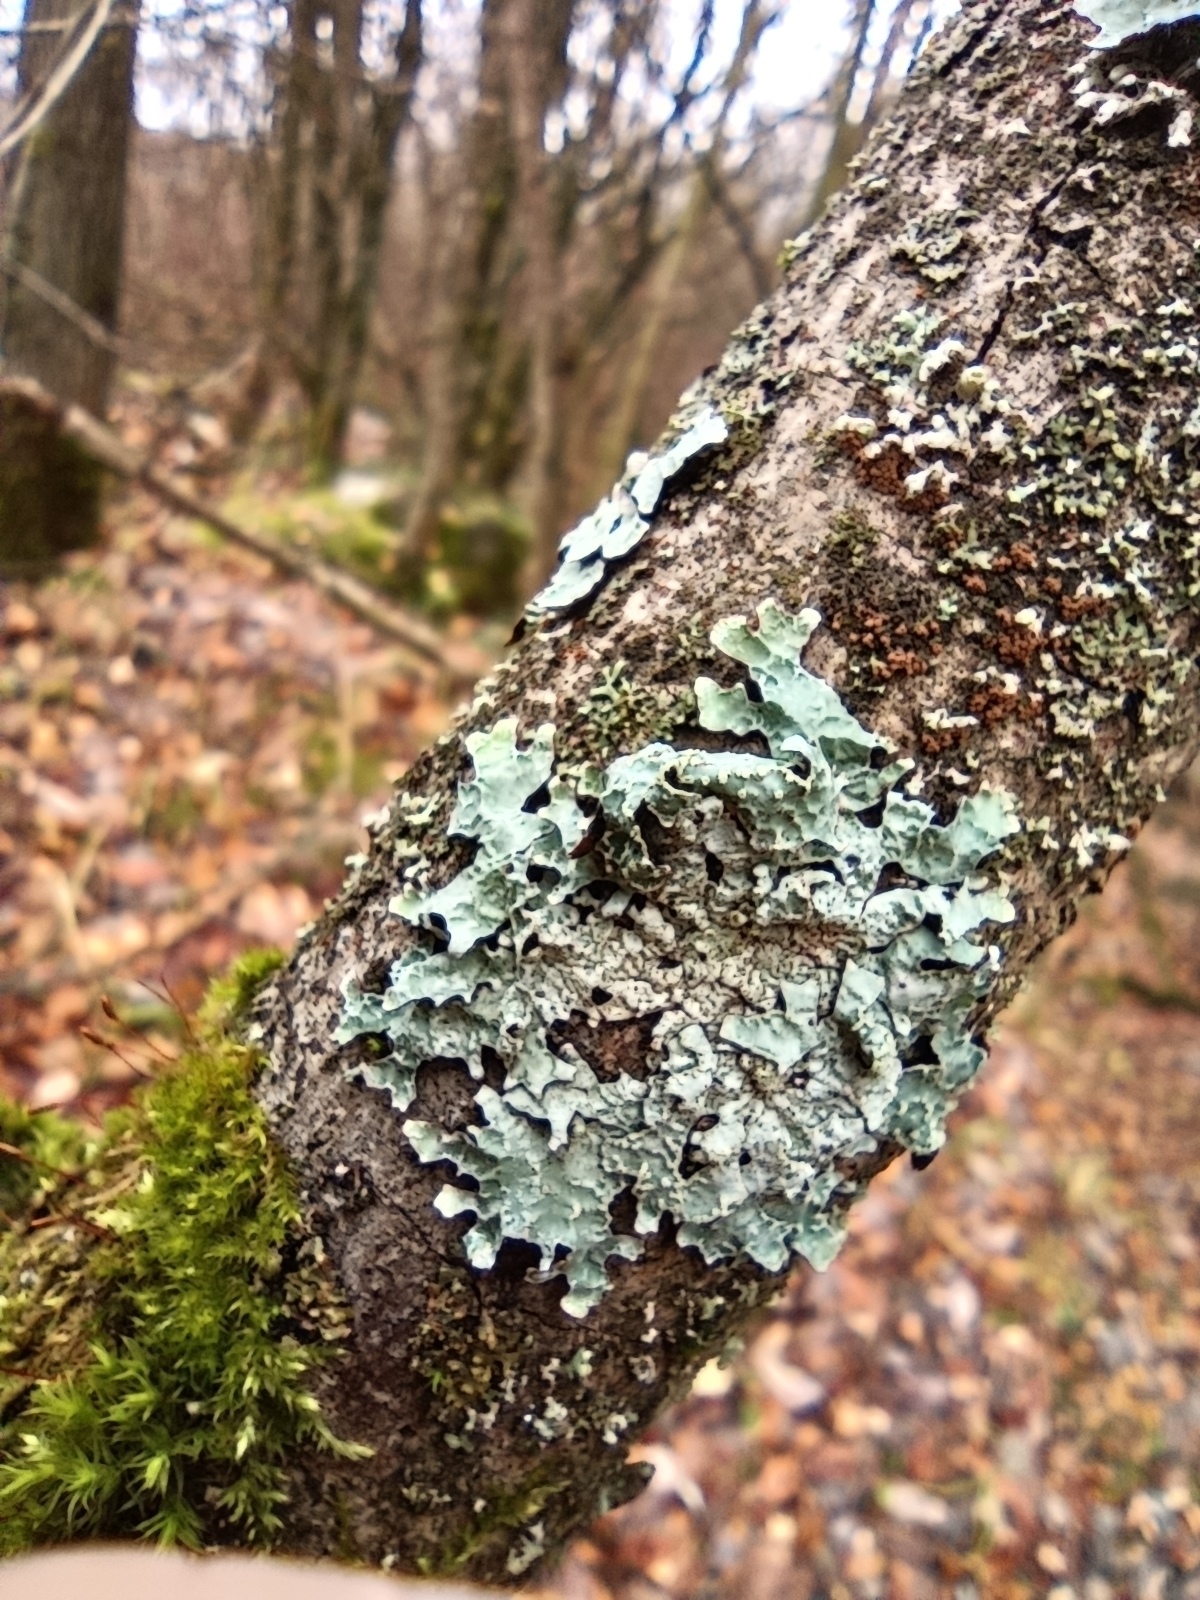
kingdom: Fungi
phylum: Ascomycota
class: Lecanoromycetes
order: Lecanorales
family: Parmeliaceae
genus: Parmelia
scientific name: Parmelia sulcata
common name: Netted shield lichen
